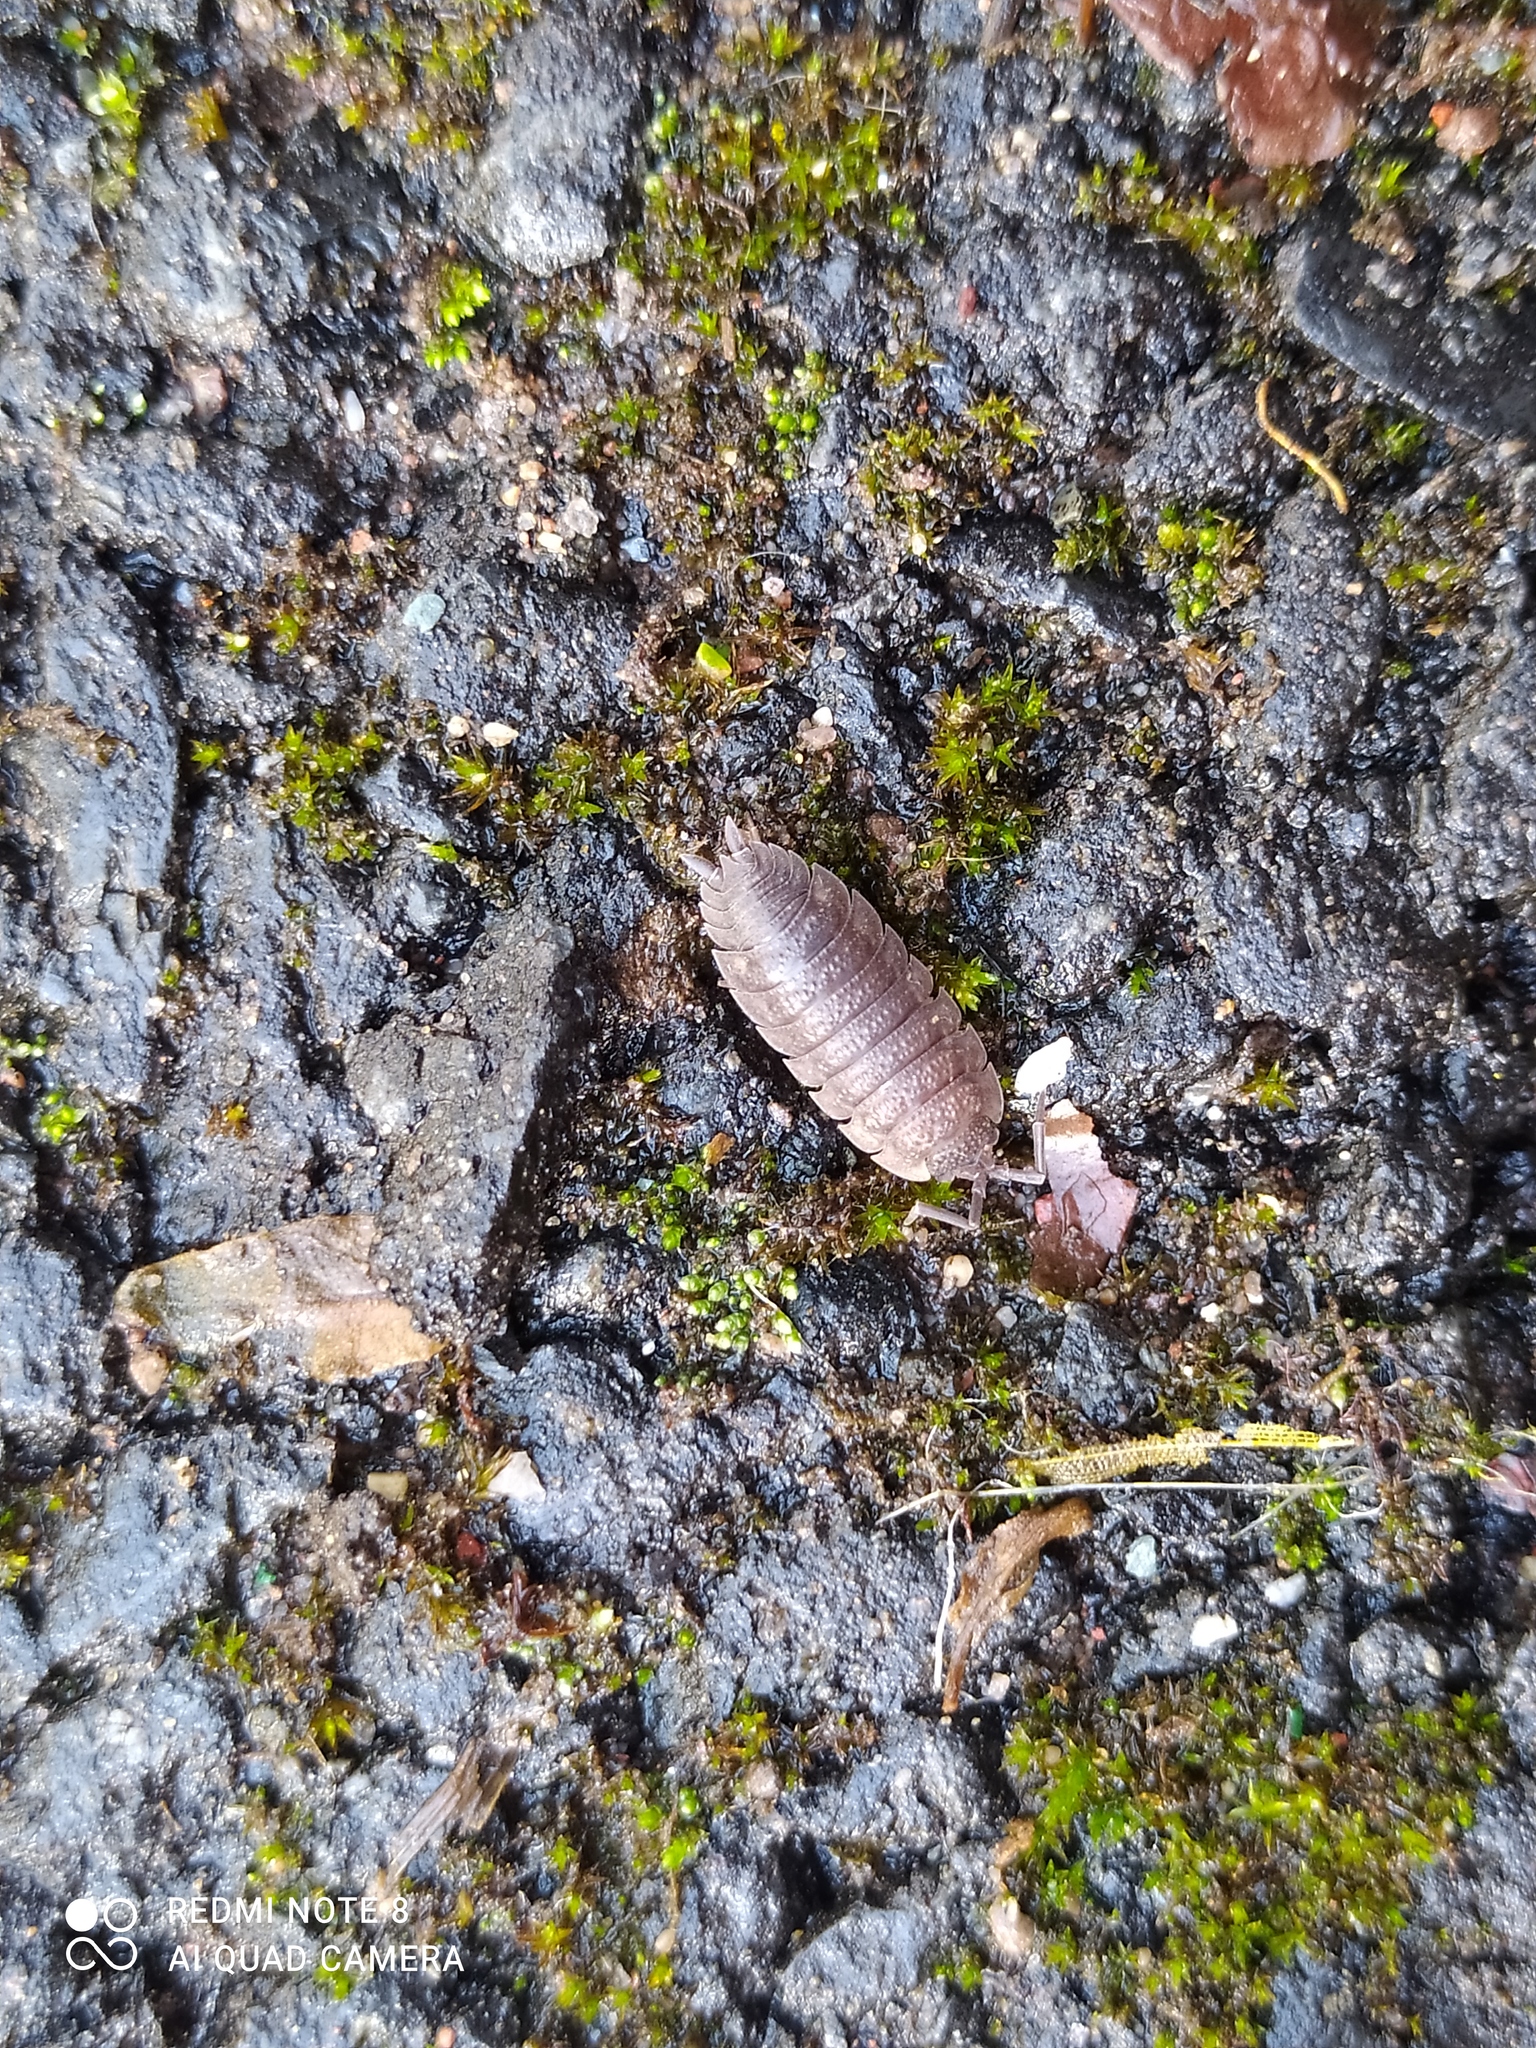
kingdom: Animalia
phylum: Arthropoda
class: Malacostraca
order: Isopoda
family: Porcellionidae
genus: Porcellio
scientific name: Porcellio scaber
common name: Common rough woodlouse
